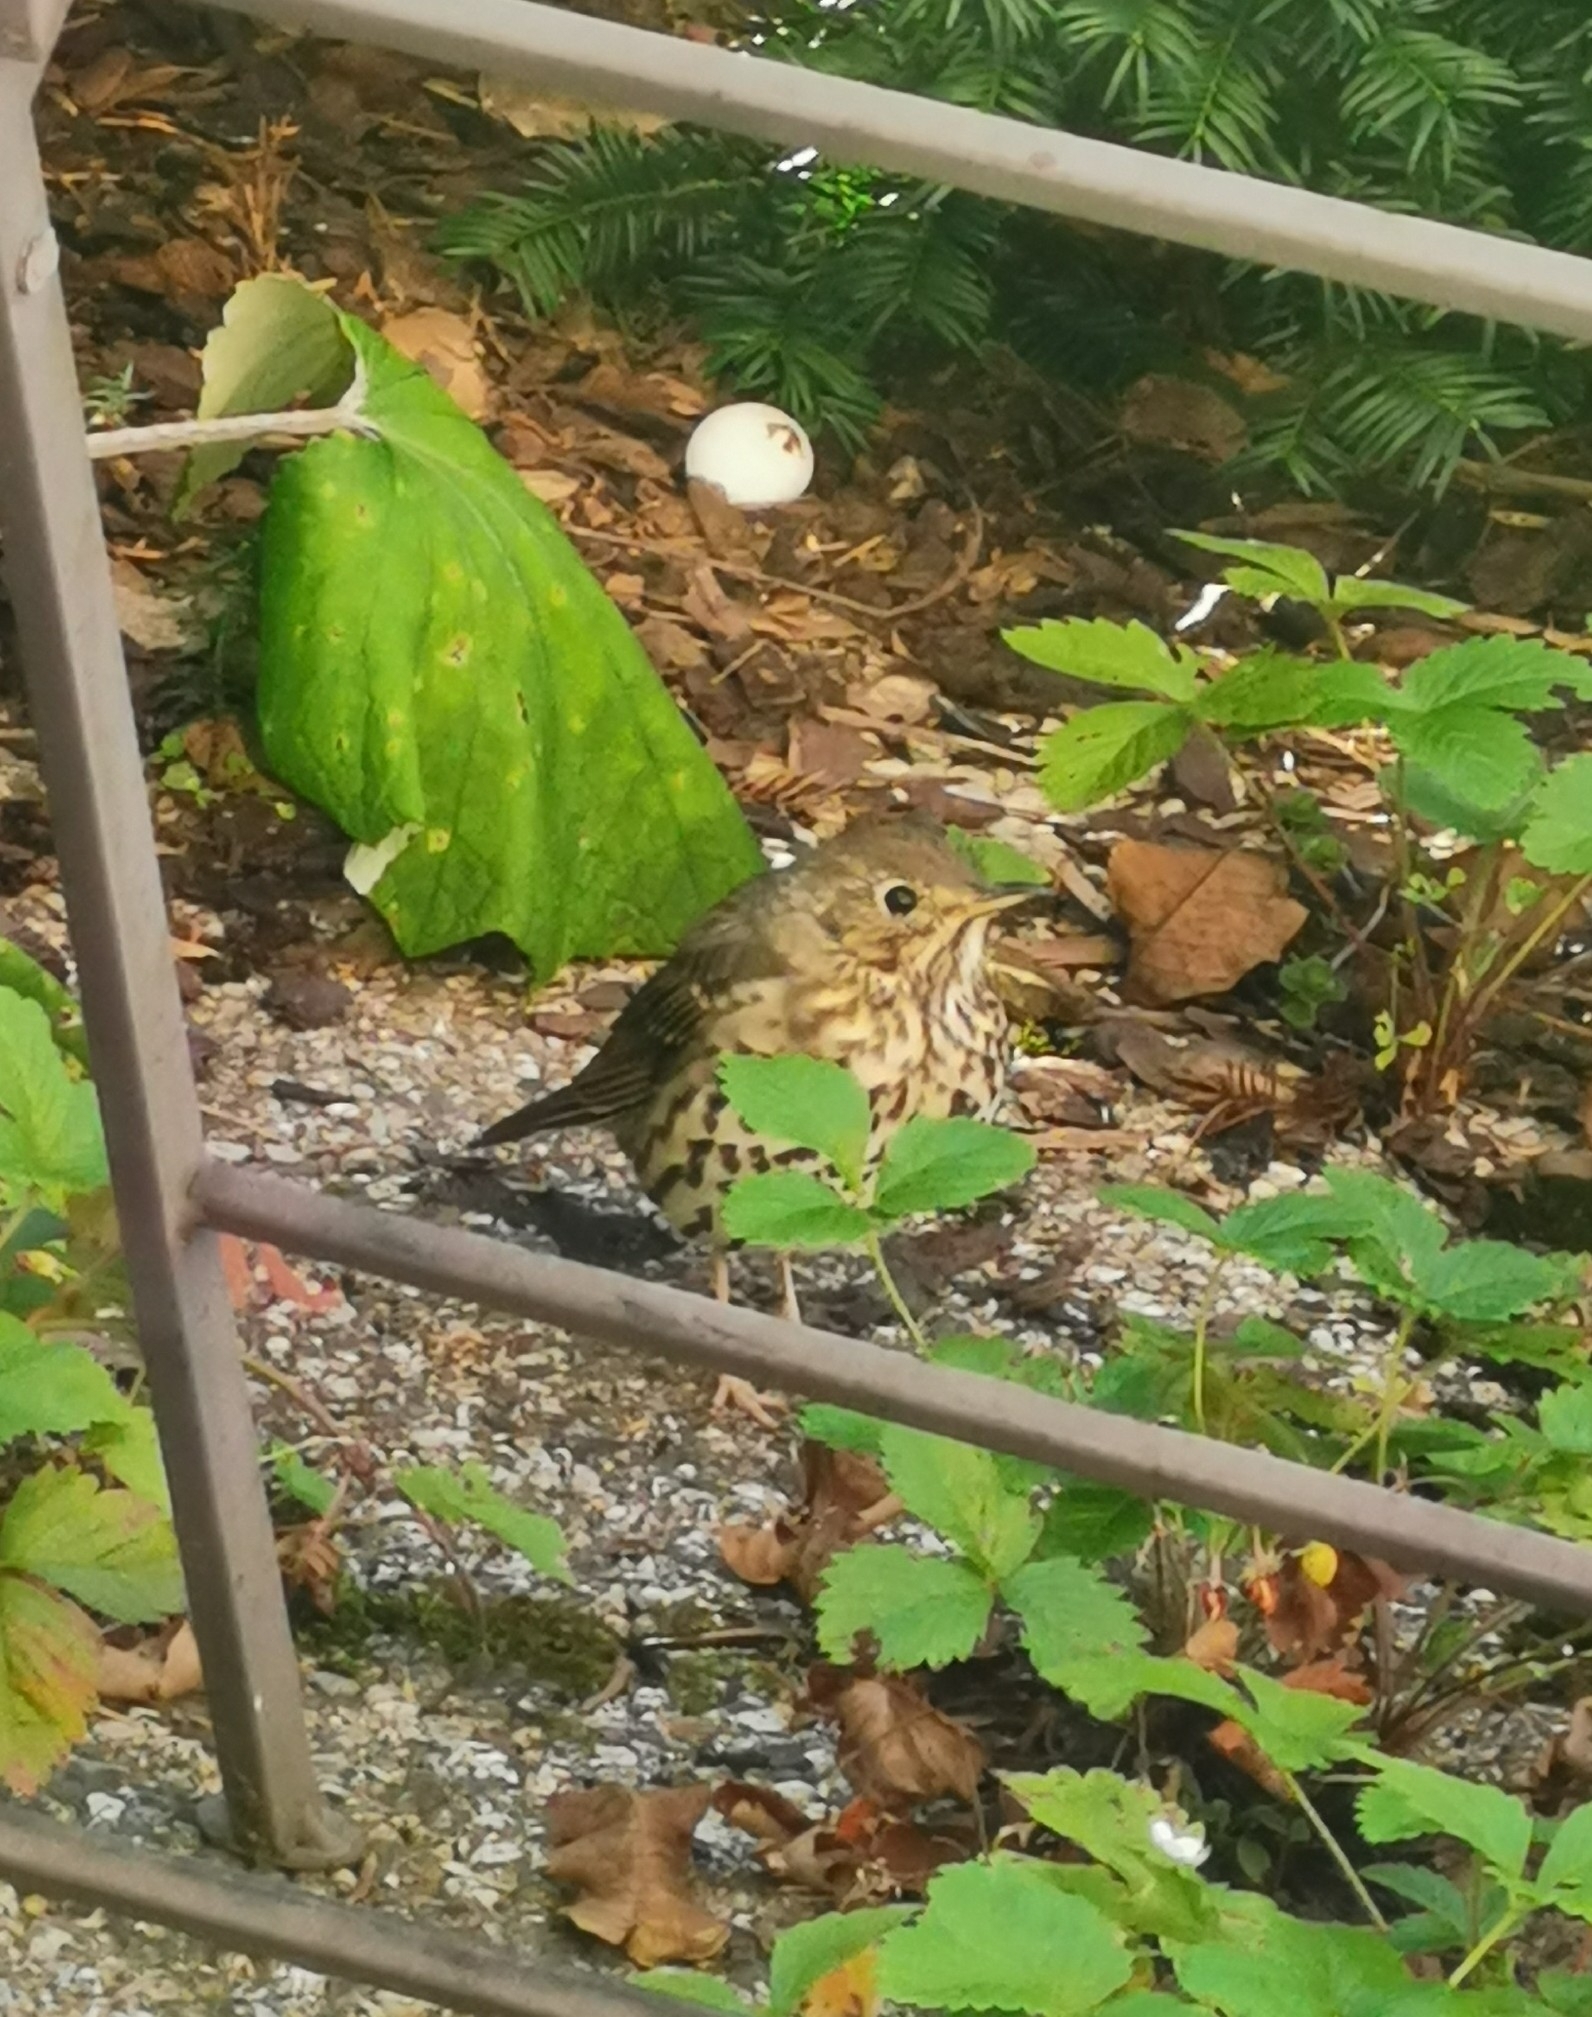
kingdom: Animalia
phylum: Chordata
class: Aves
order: Passeriformes
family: Turdidae
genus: Turdus
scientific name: Turdus philomelos
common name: Song thrush
